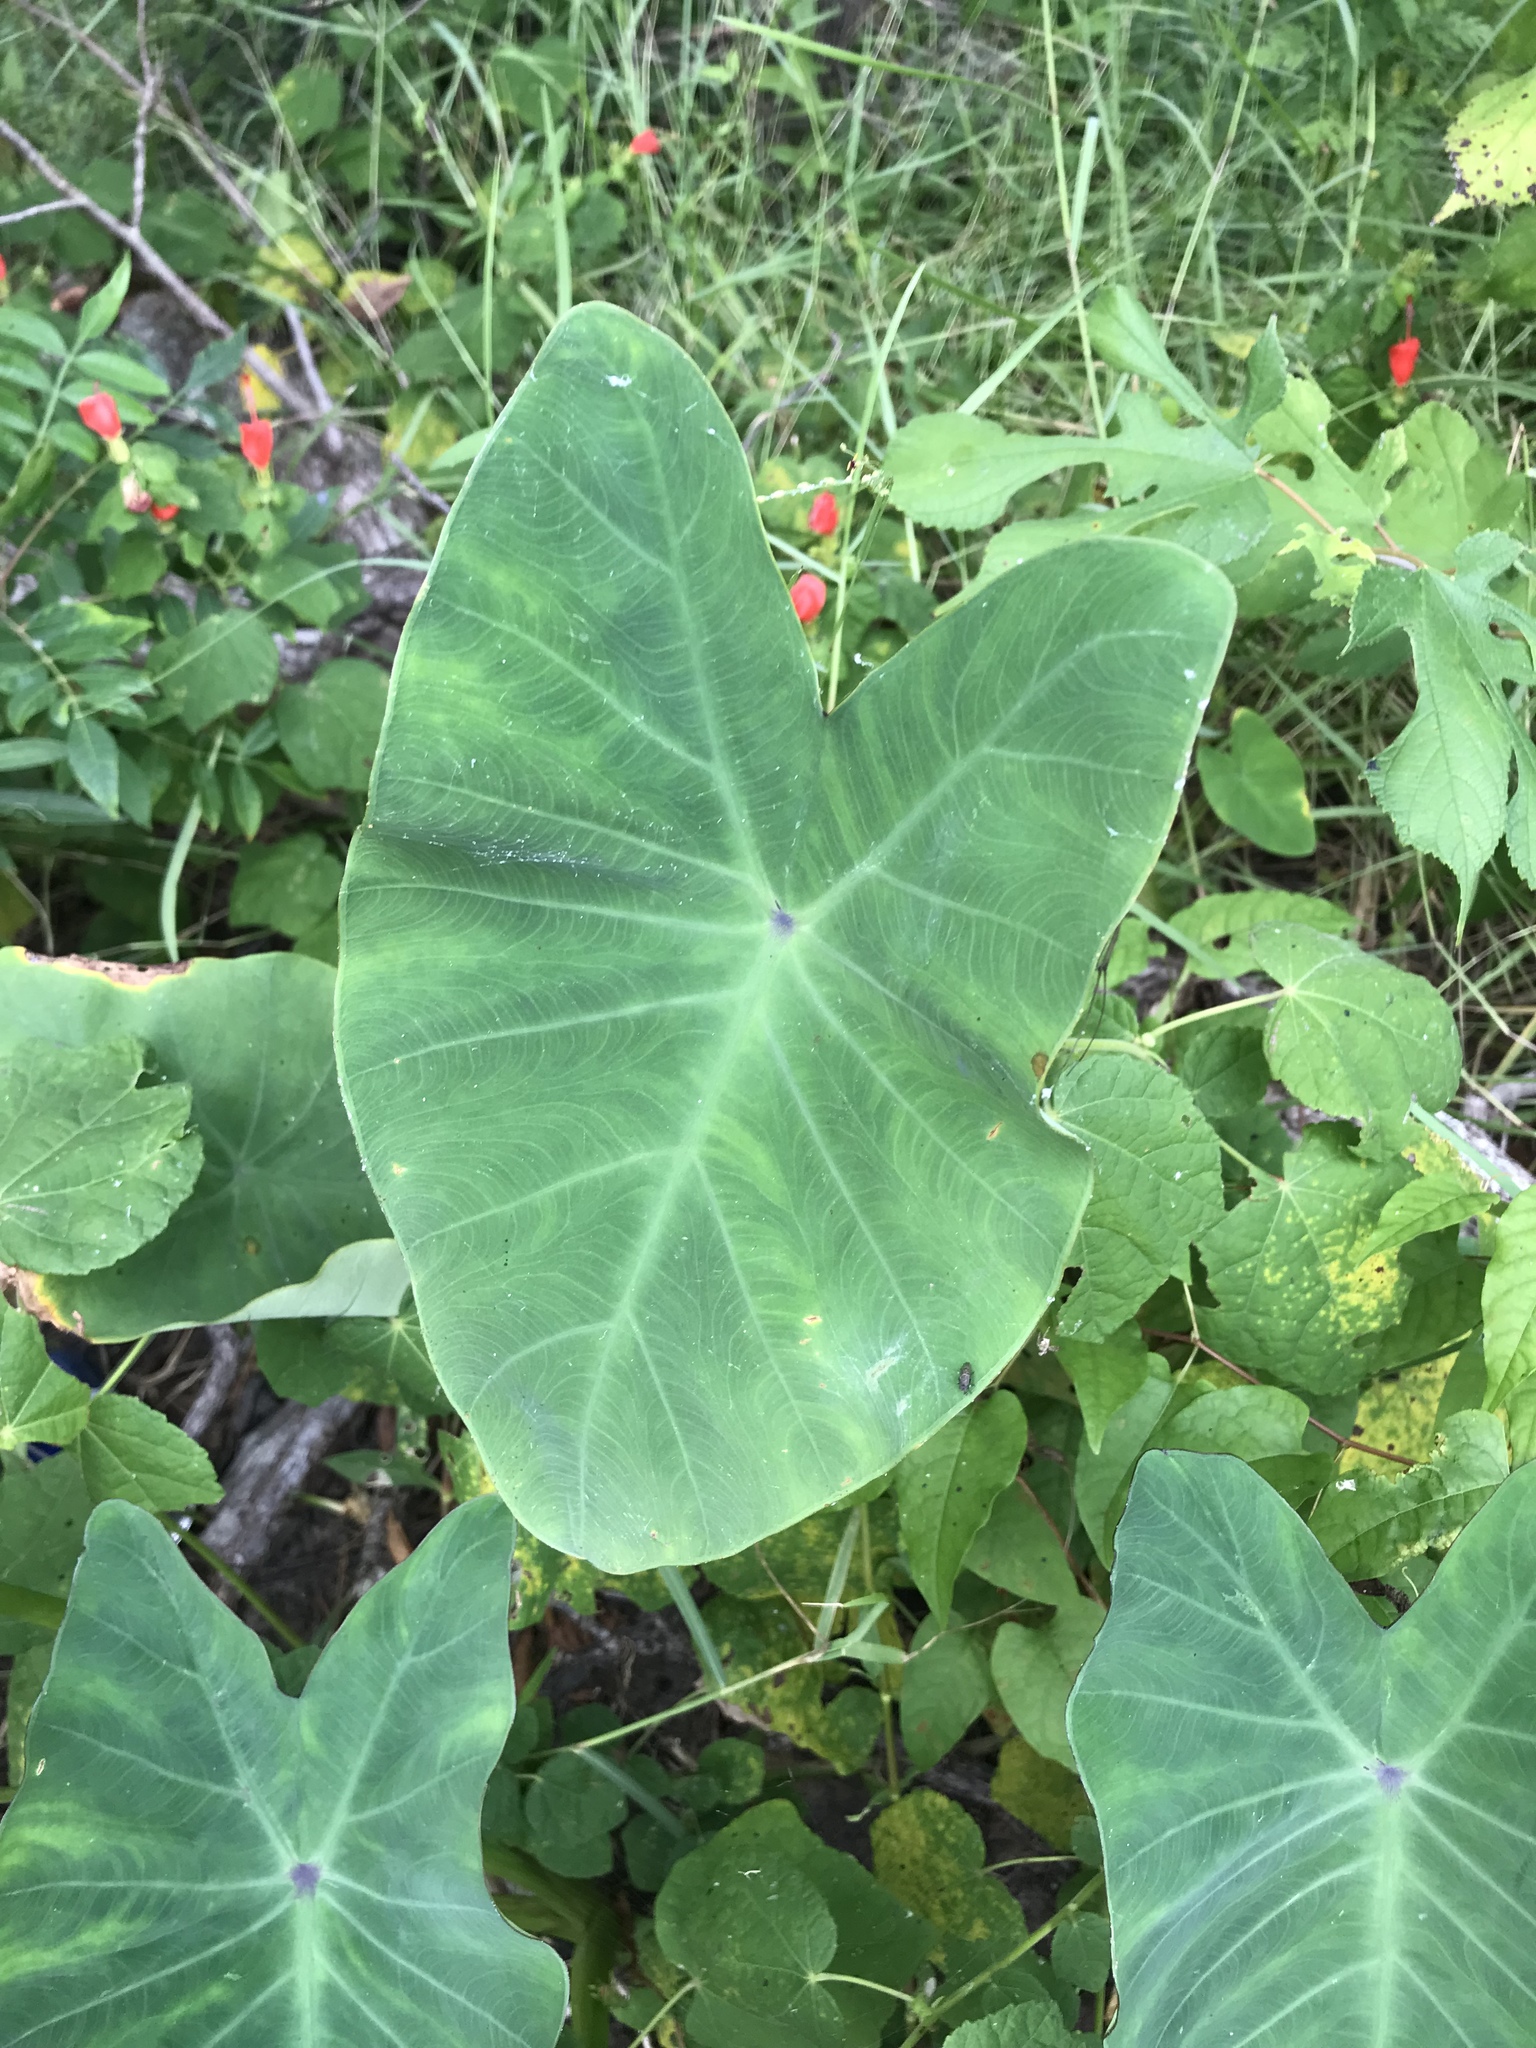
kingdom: Plantae
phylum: Tracheophyta
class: Liliopsida
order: Alismatales
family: Araceae
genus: Colocasia
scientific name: Colocasia esculenta
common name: Taro
